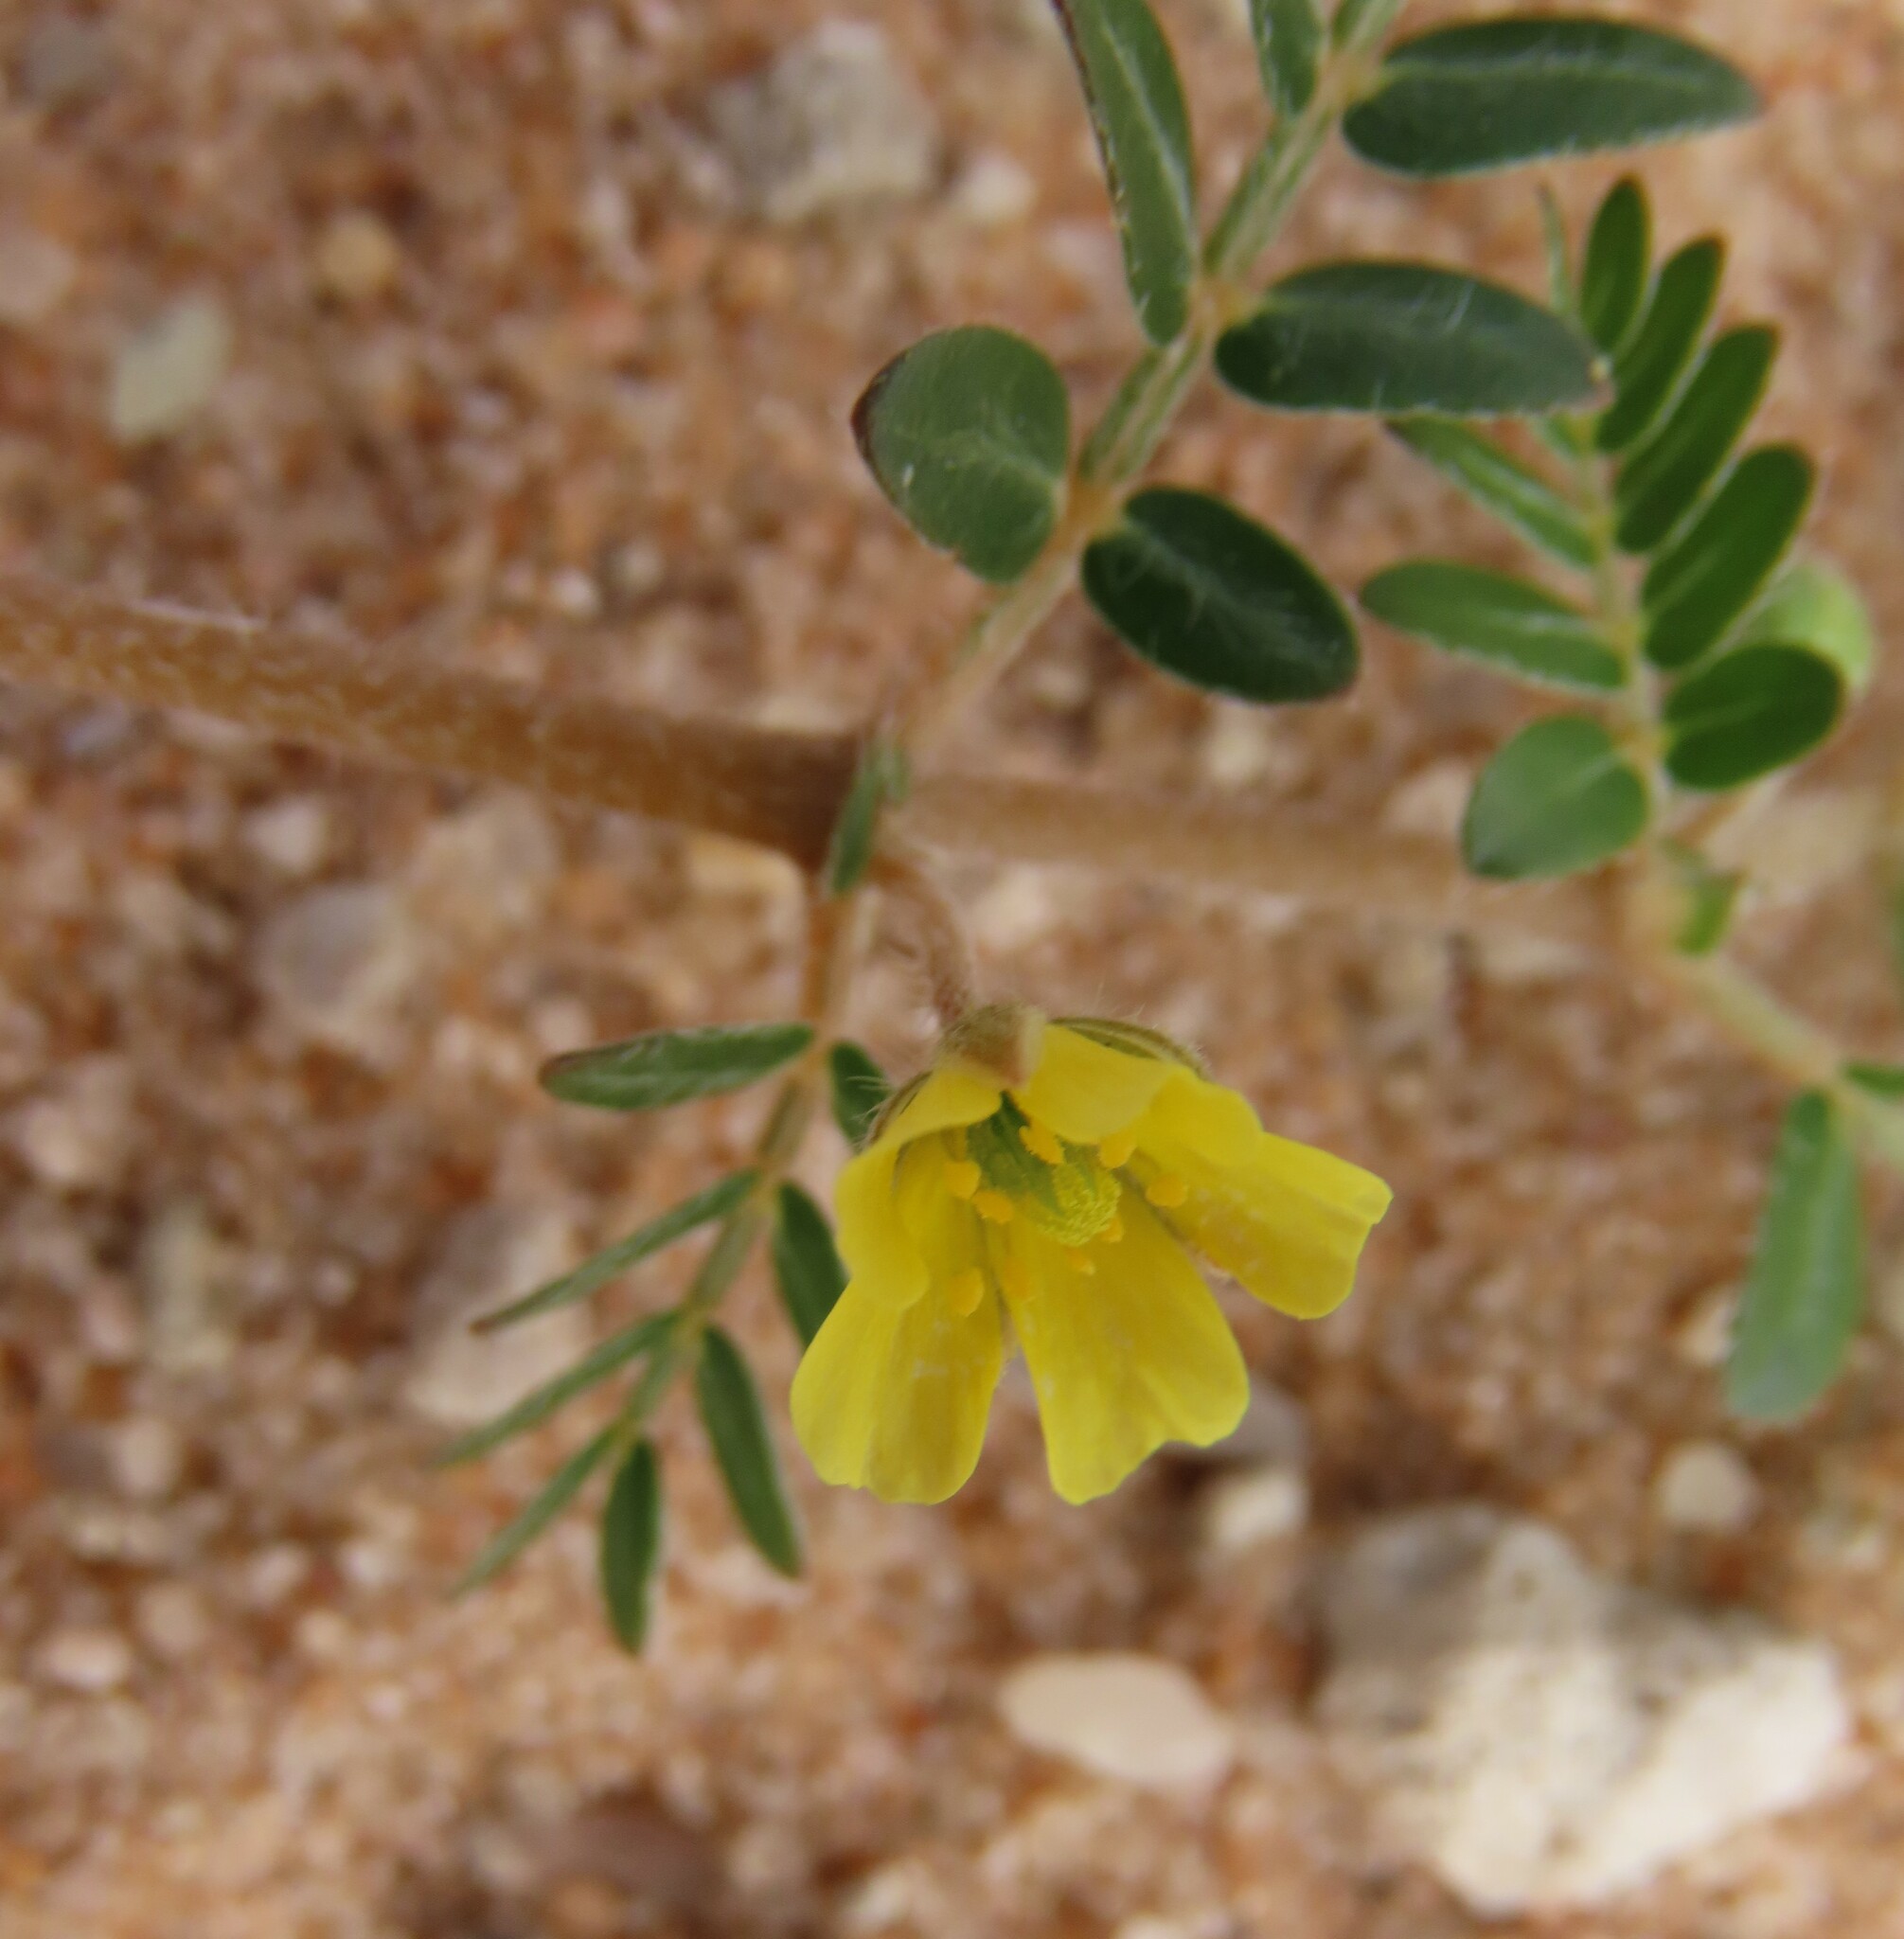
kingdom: Plantae
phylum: Tracheophyta
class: Magnoliopsida
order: Zygophyllales
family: Zygophyllaceae
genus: Tribulus
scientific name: Tribulus terrestris
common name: Puncturevine
